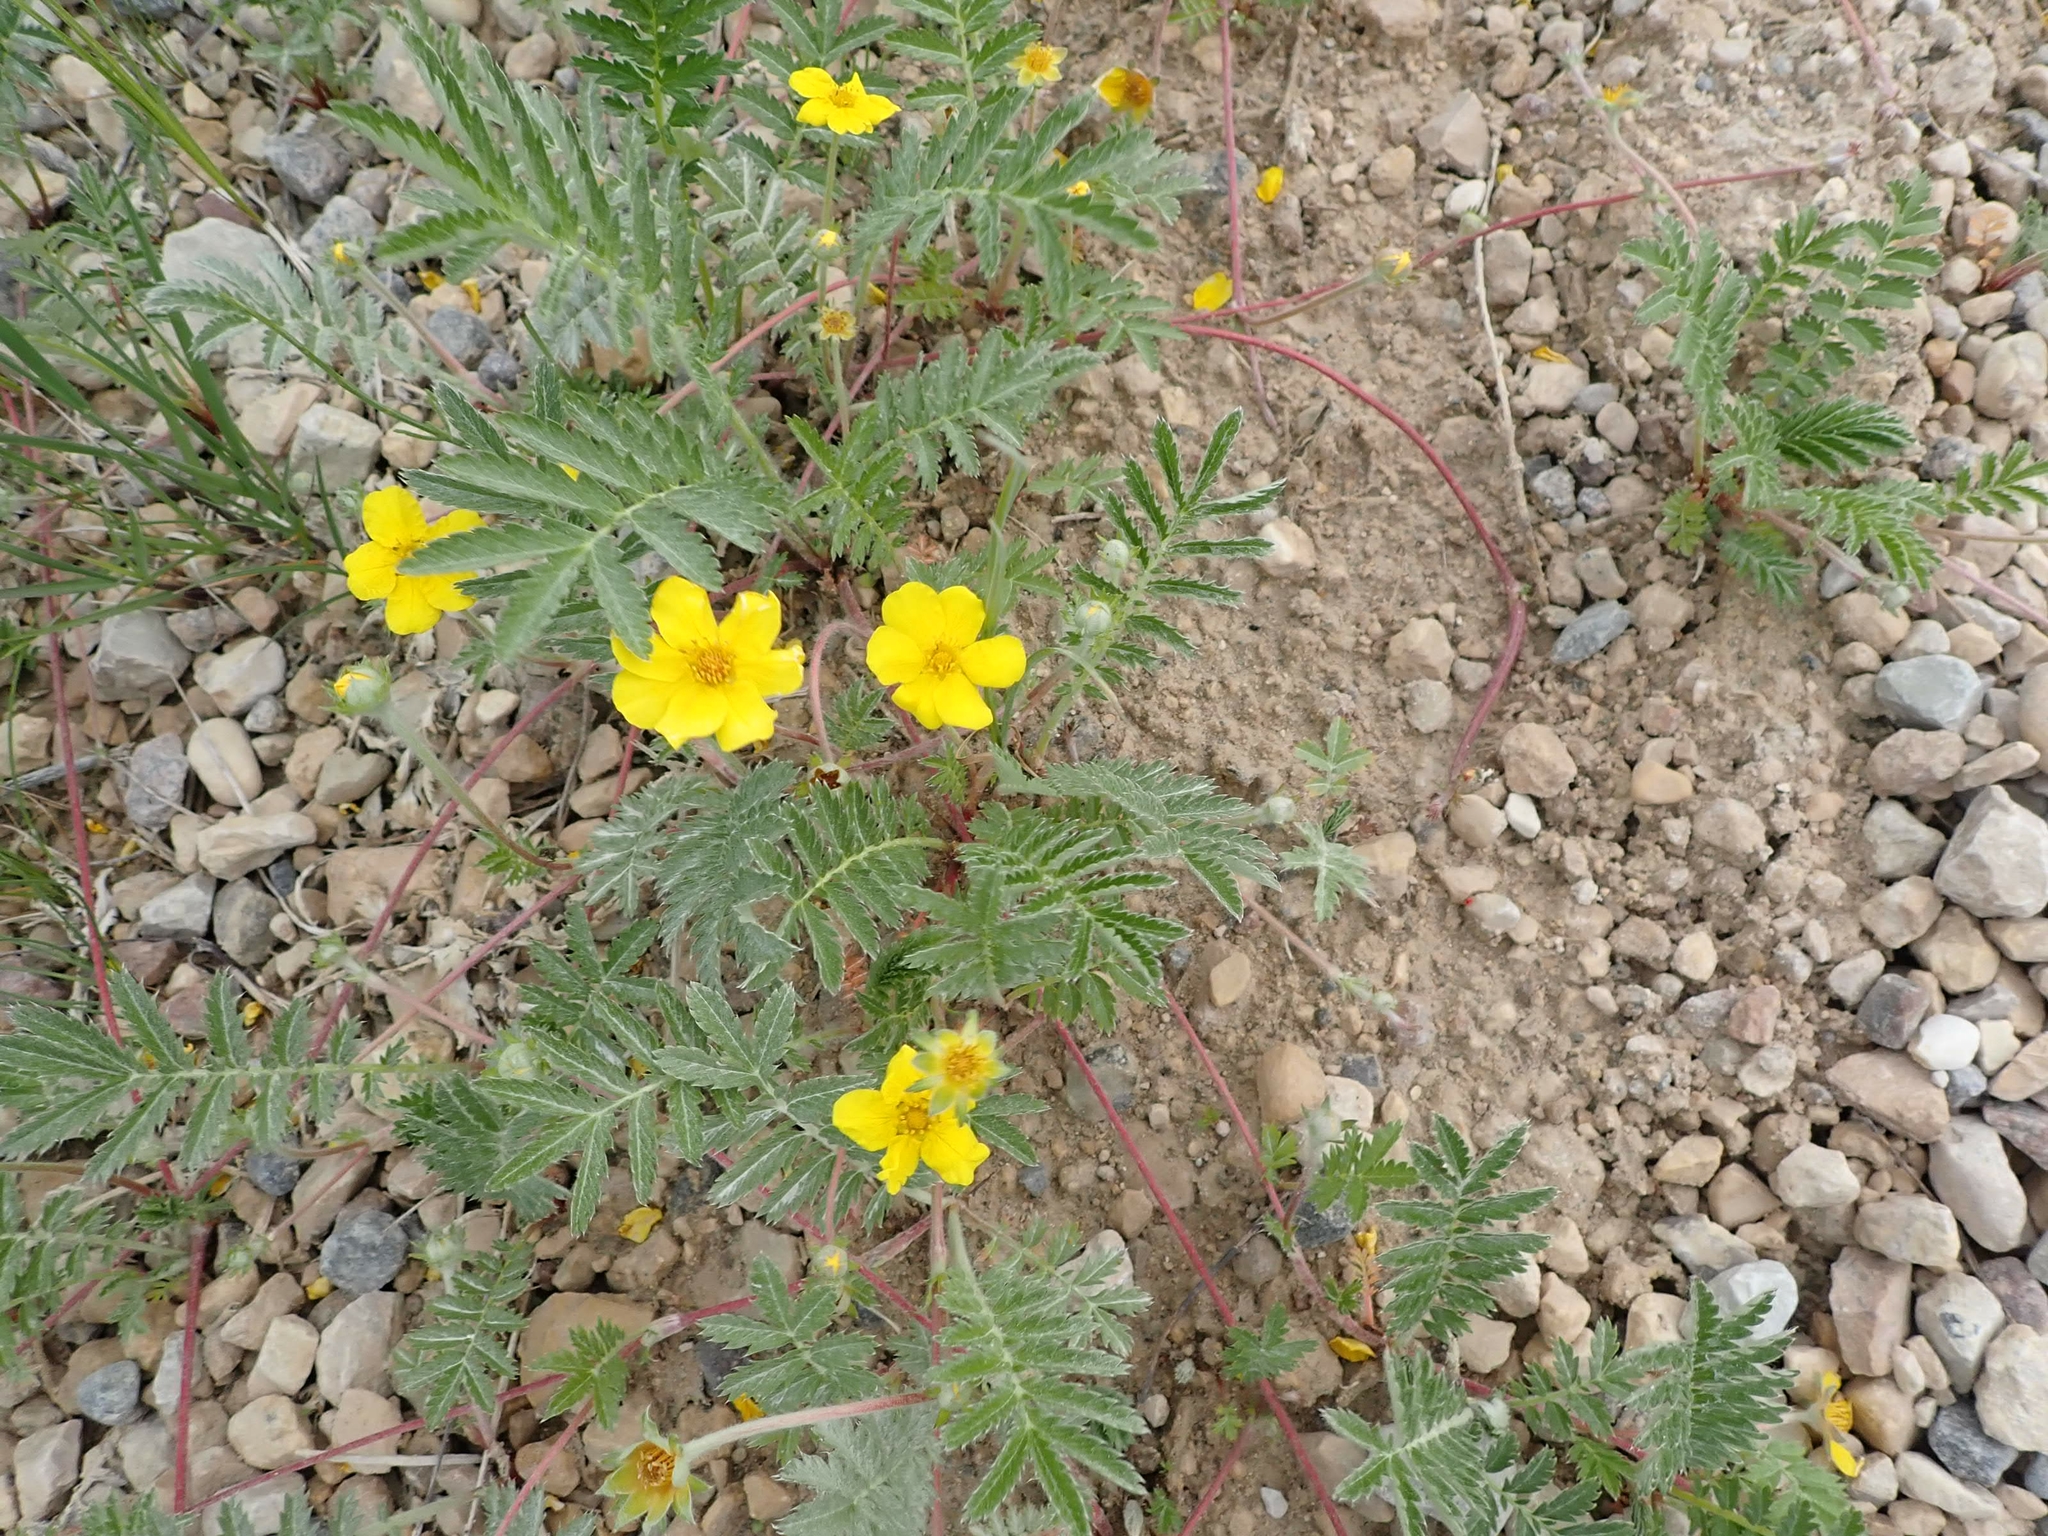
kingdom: Plantae
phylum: Tracheophyta
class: Magnoliopsida
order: Rosales
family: Rosaceae
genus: Argentina
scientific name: Argentina anserina
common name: Common silverweed
